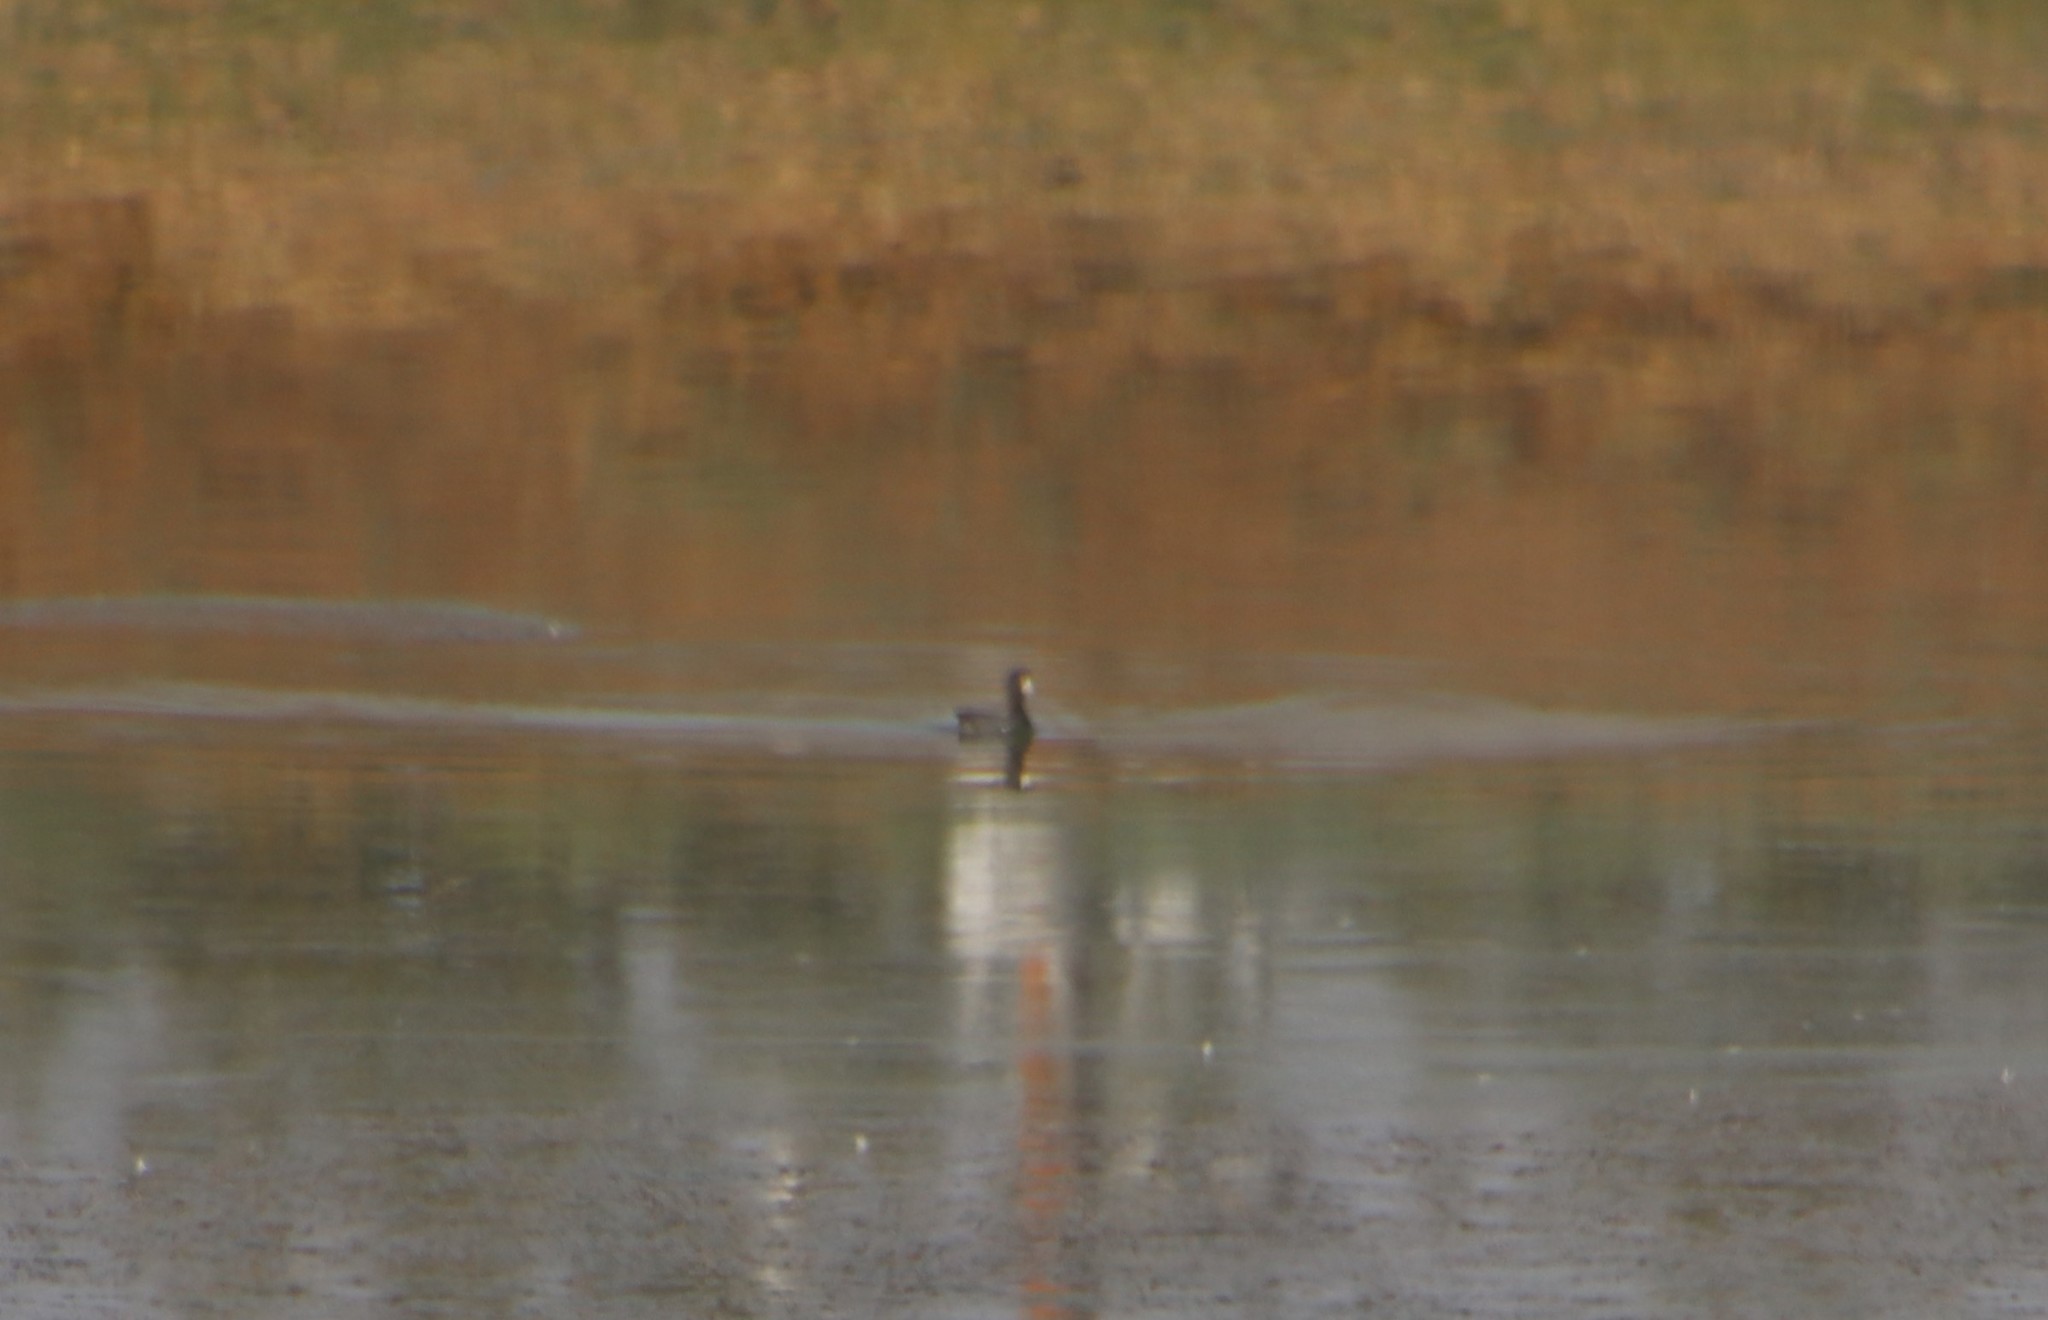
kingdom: Animalia
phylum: Chordata
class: Aves
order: Gruiformes
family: Rallidae
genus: Fulica
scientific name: Fulica americana
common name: American coot
